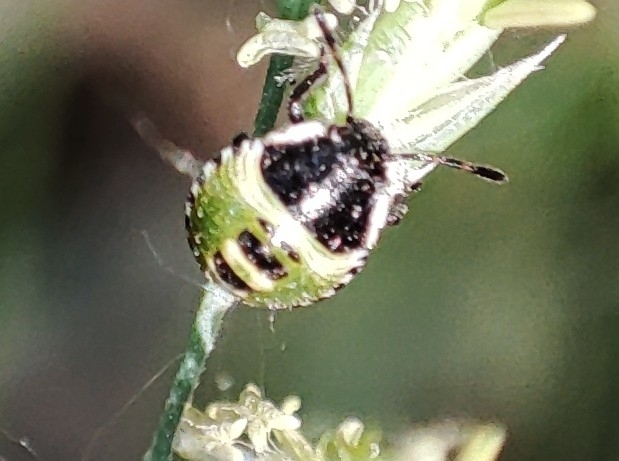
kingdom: Animalia
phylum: Arthropoda
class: Insecta
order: Hemiptera
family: Pentatomidae
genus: Palomena
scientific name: Palomena prasina
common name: Green shieldbug
